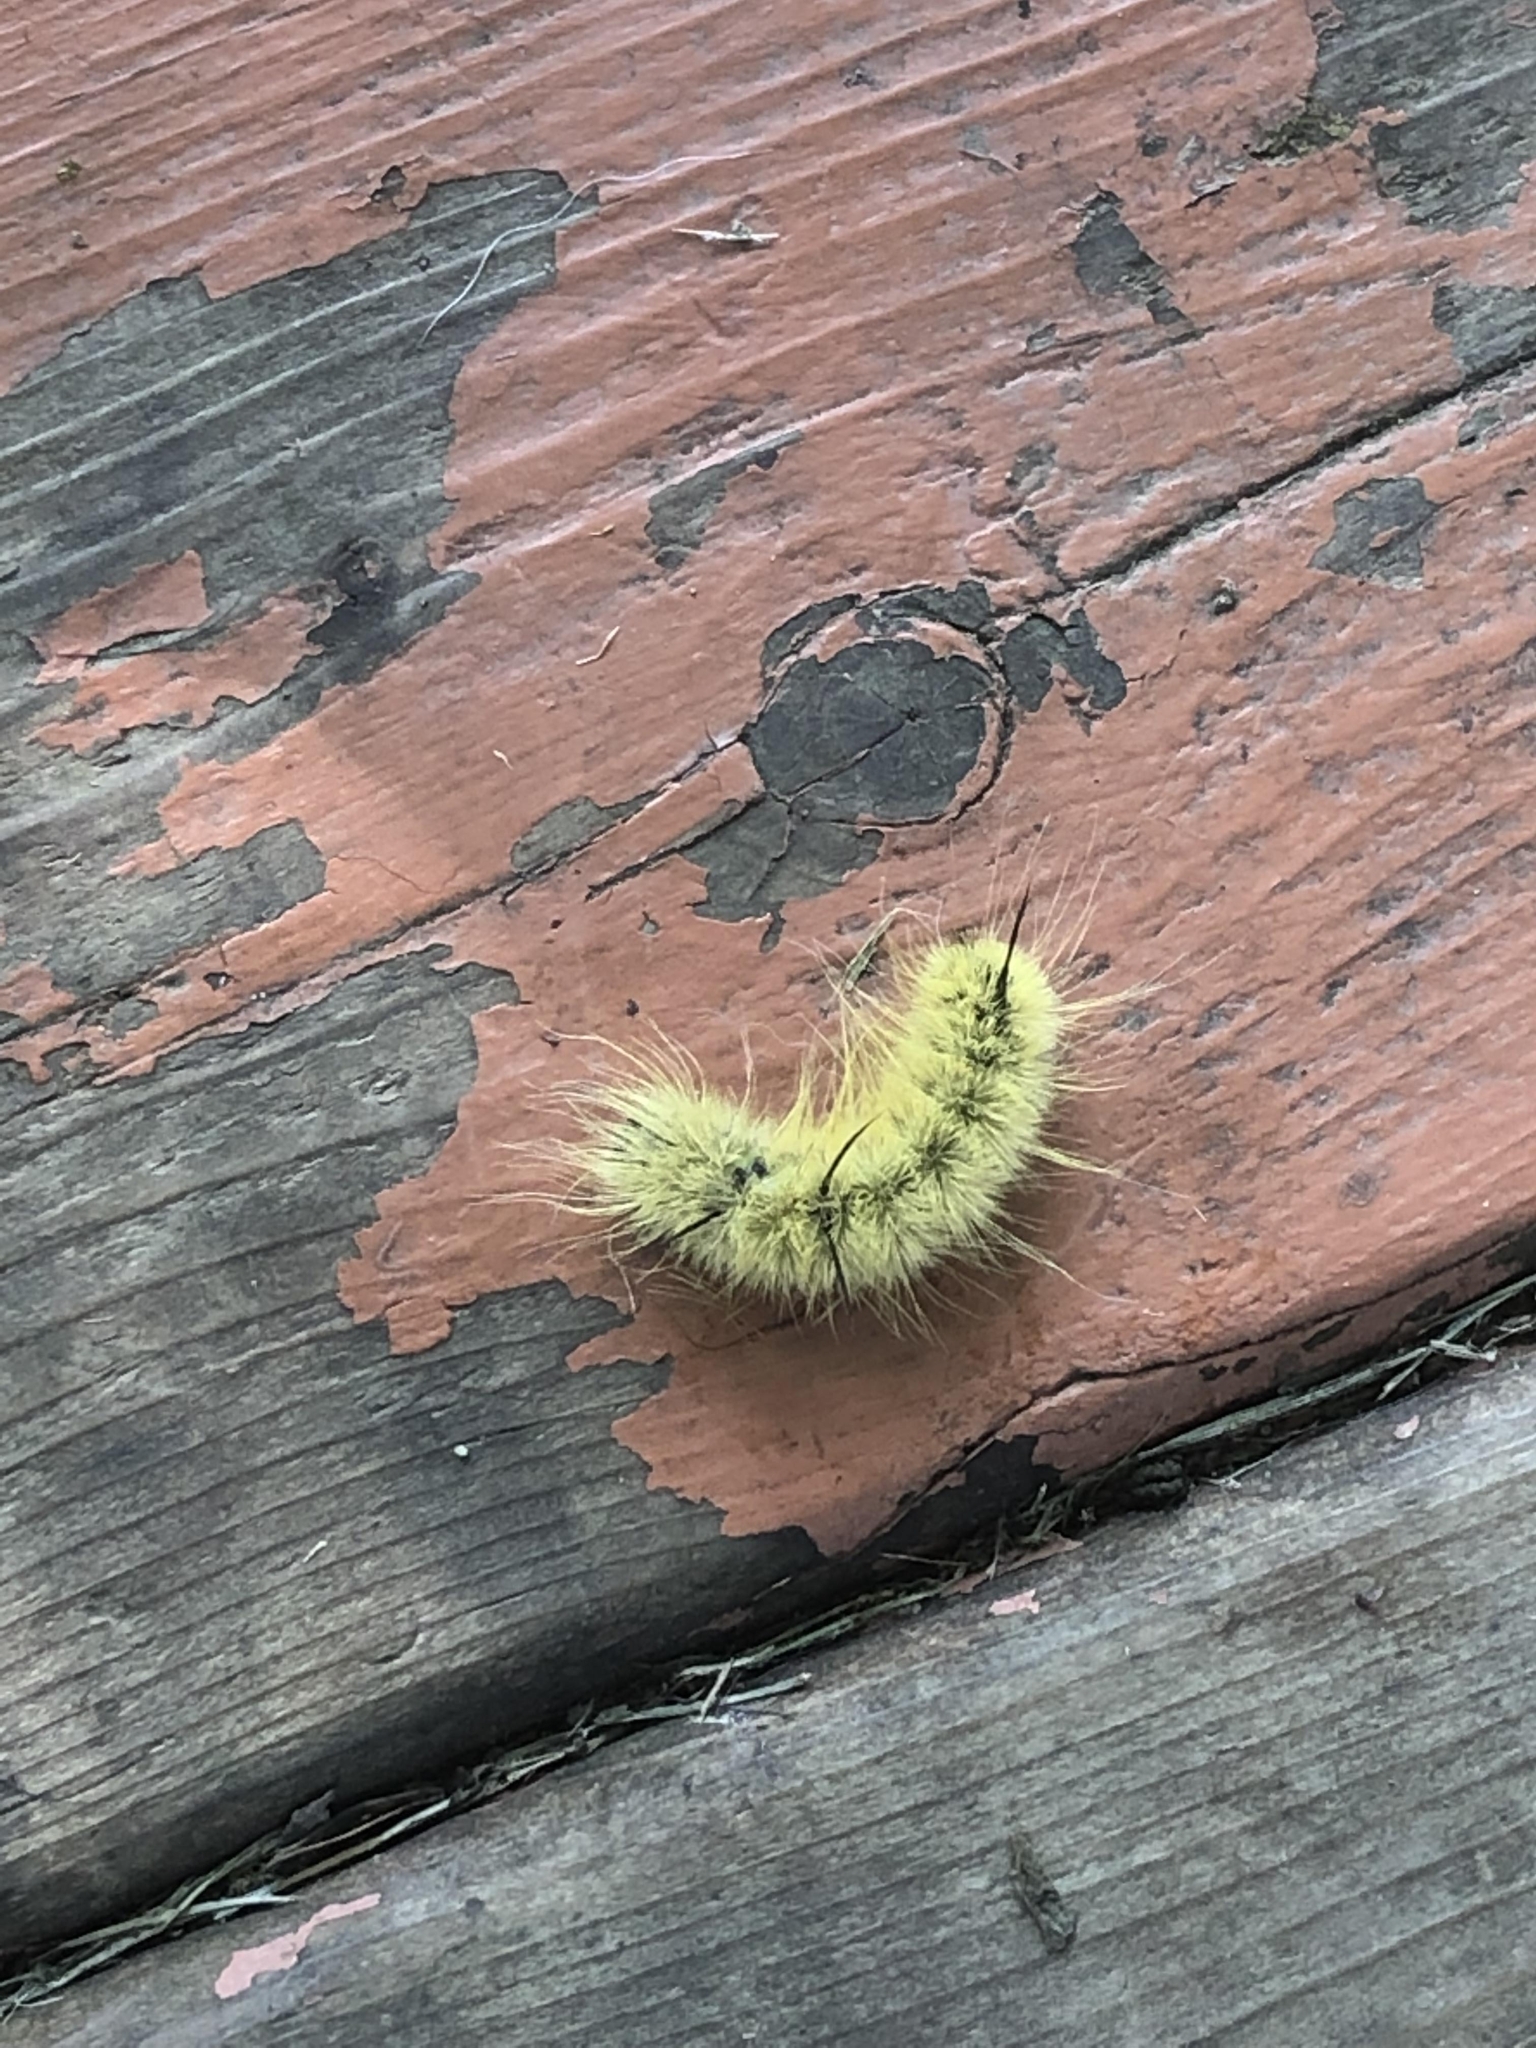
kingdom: Animalia
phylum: Arthropoda
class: Insecta
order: Lepidoptera
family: Noctuidae
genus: Acronicta
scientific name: Acronicta americana
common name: American dagger
